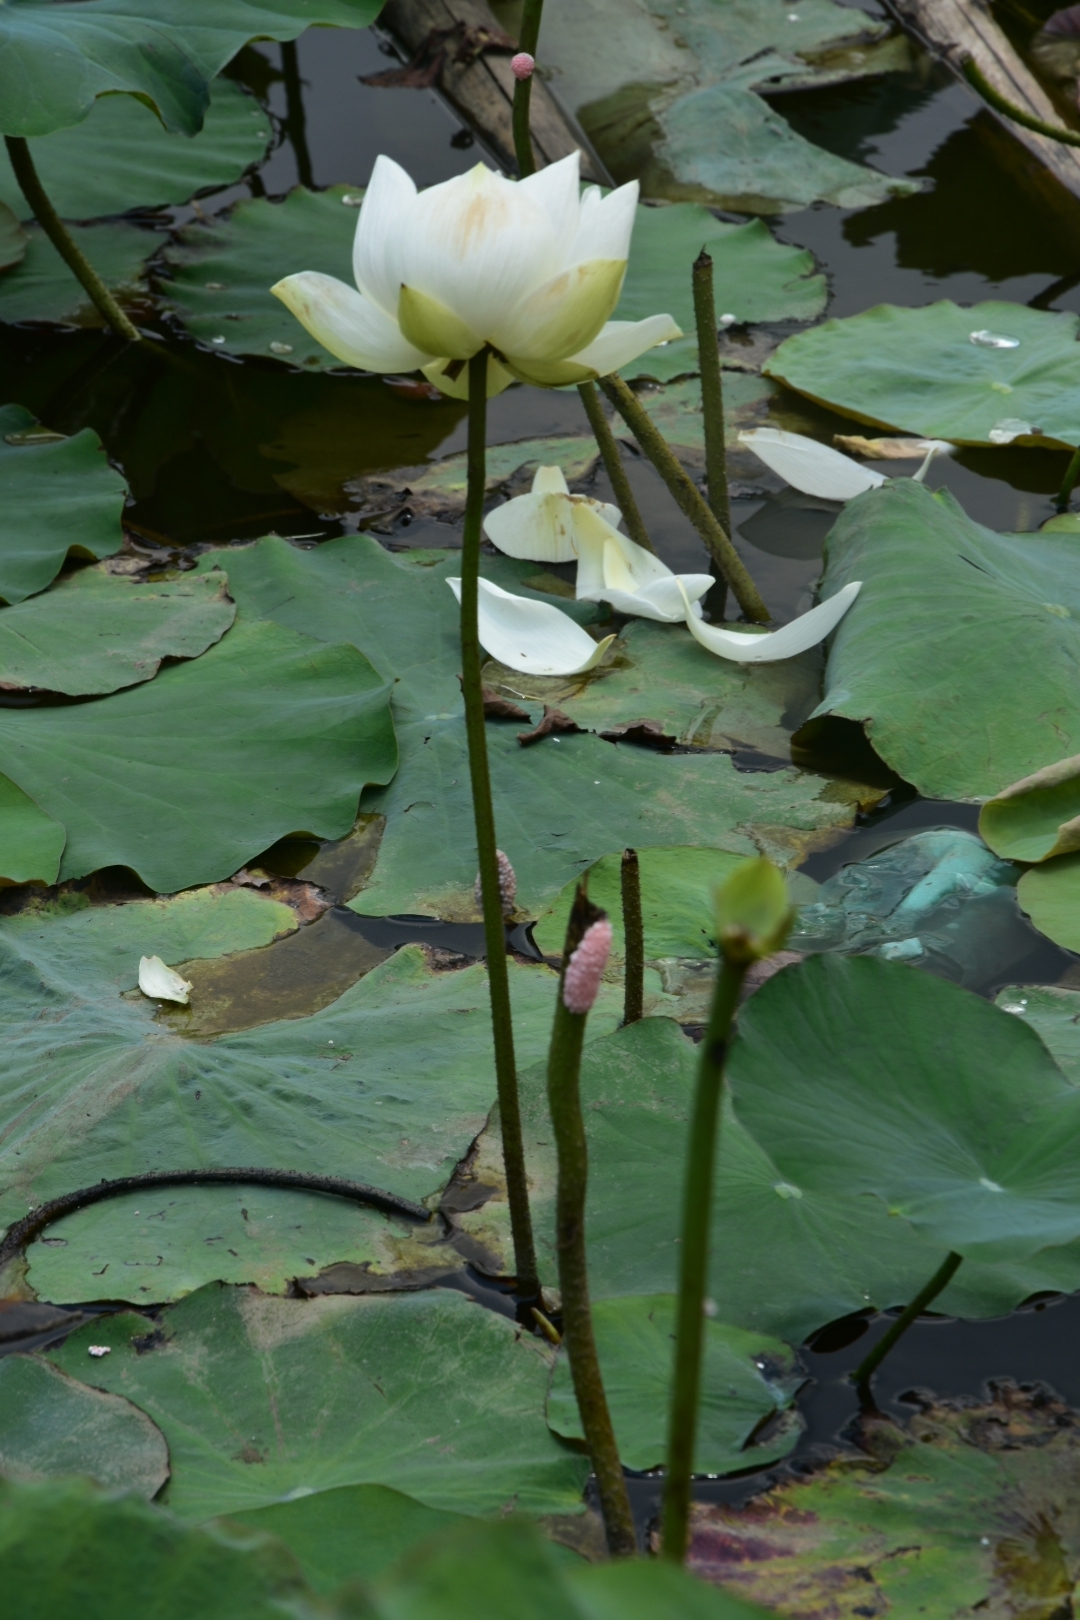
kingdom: Plantae
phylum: Tracheophyta
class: Magnoliopsida
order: Proteales
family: Nelumbonaceae
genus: Nelumbo
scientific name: Nelumbo nucifera
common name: Sacred lotus
